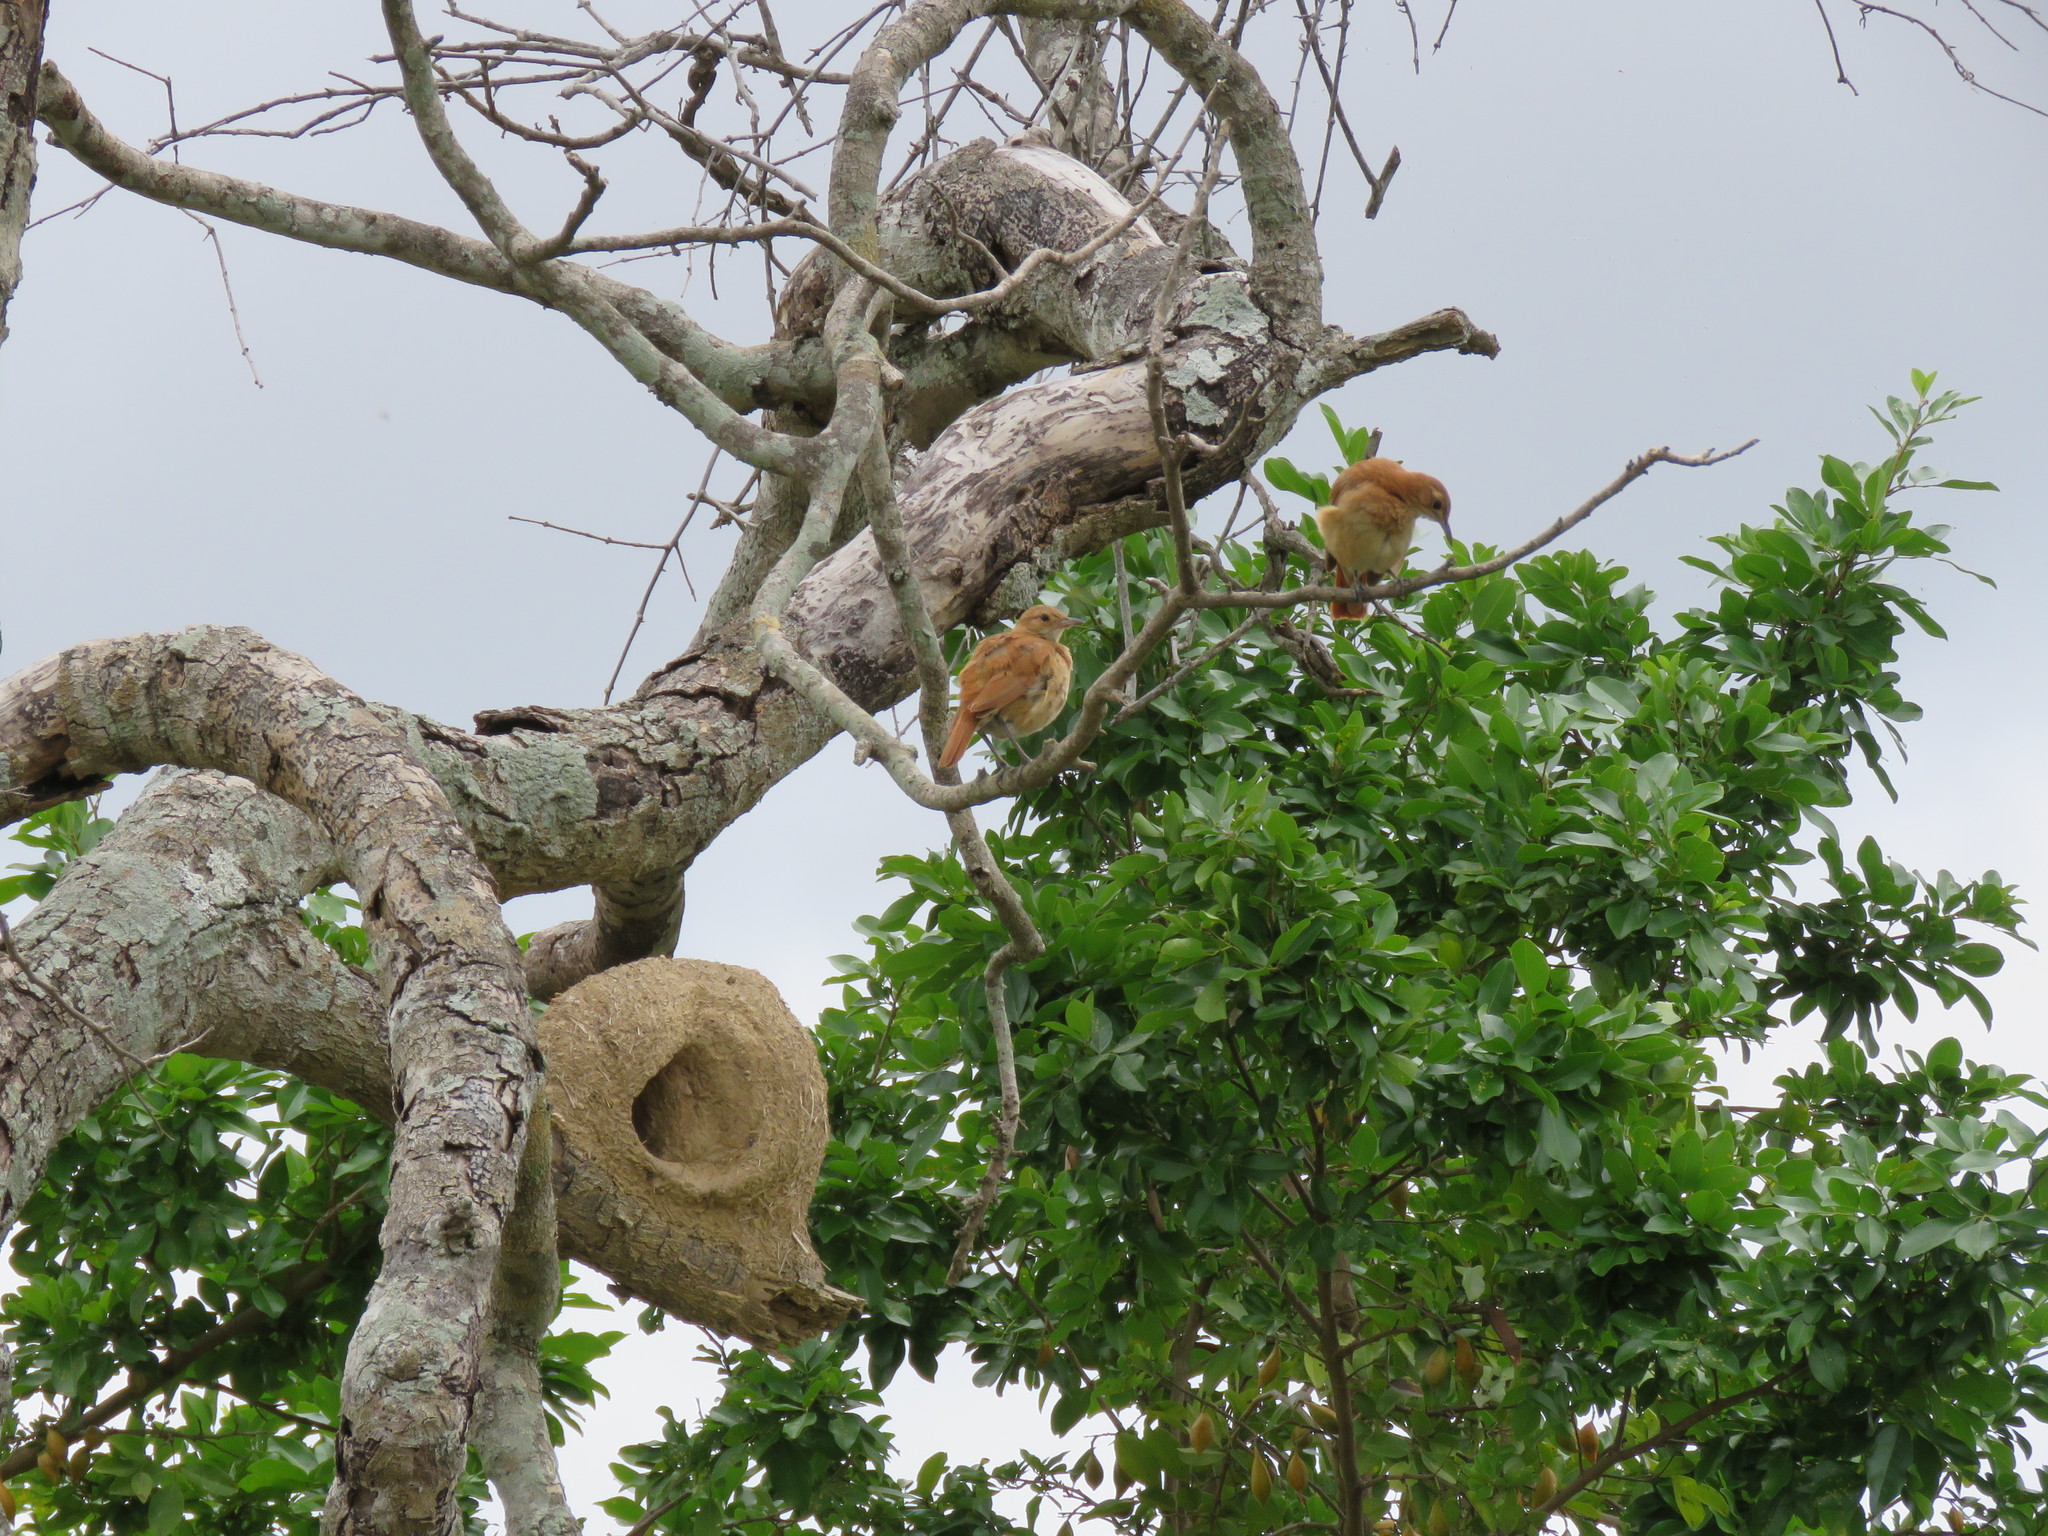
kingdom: Animalia
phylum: Chordata
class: Aves
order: Passeriformes
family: Furnariidae
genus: Furnarius
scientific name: Furnarius rufus
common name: Rufous hornero
